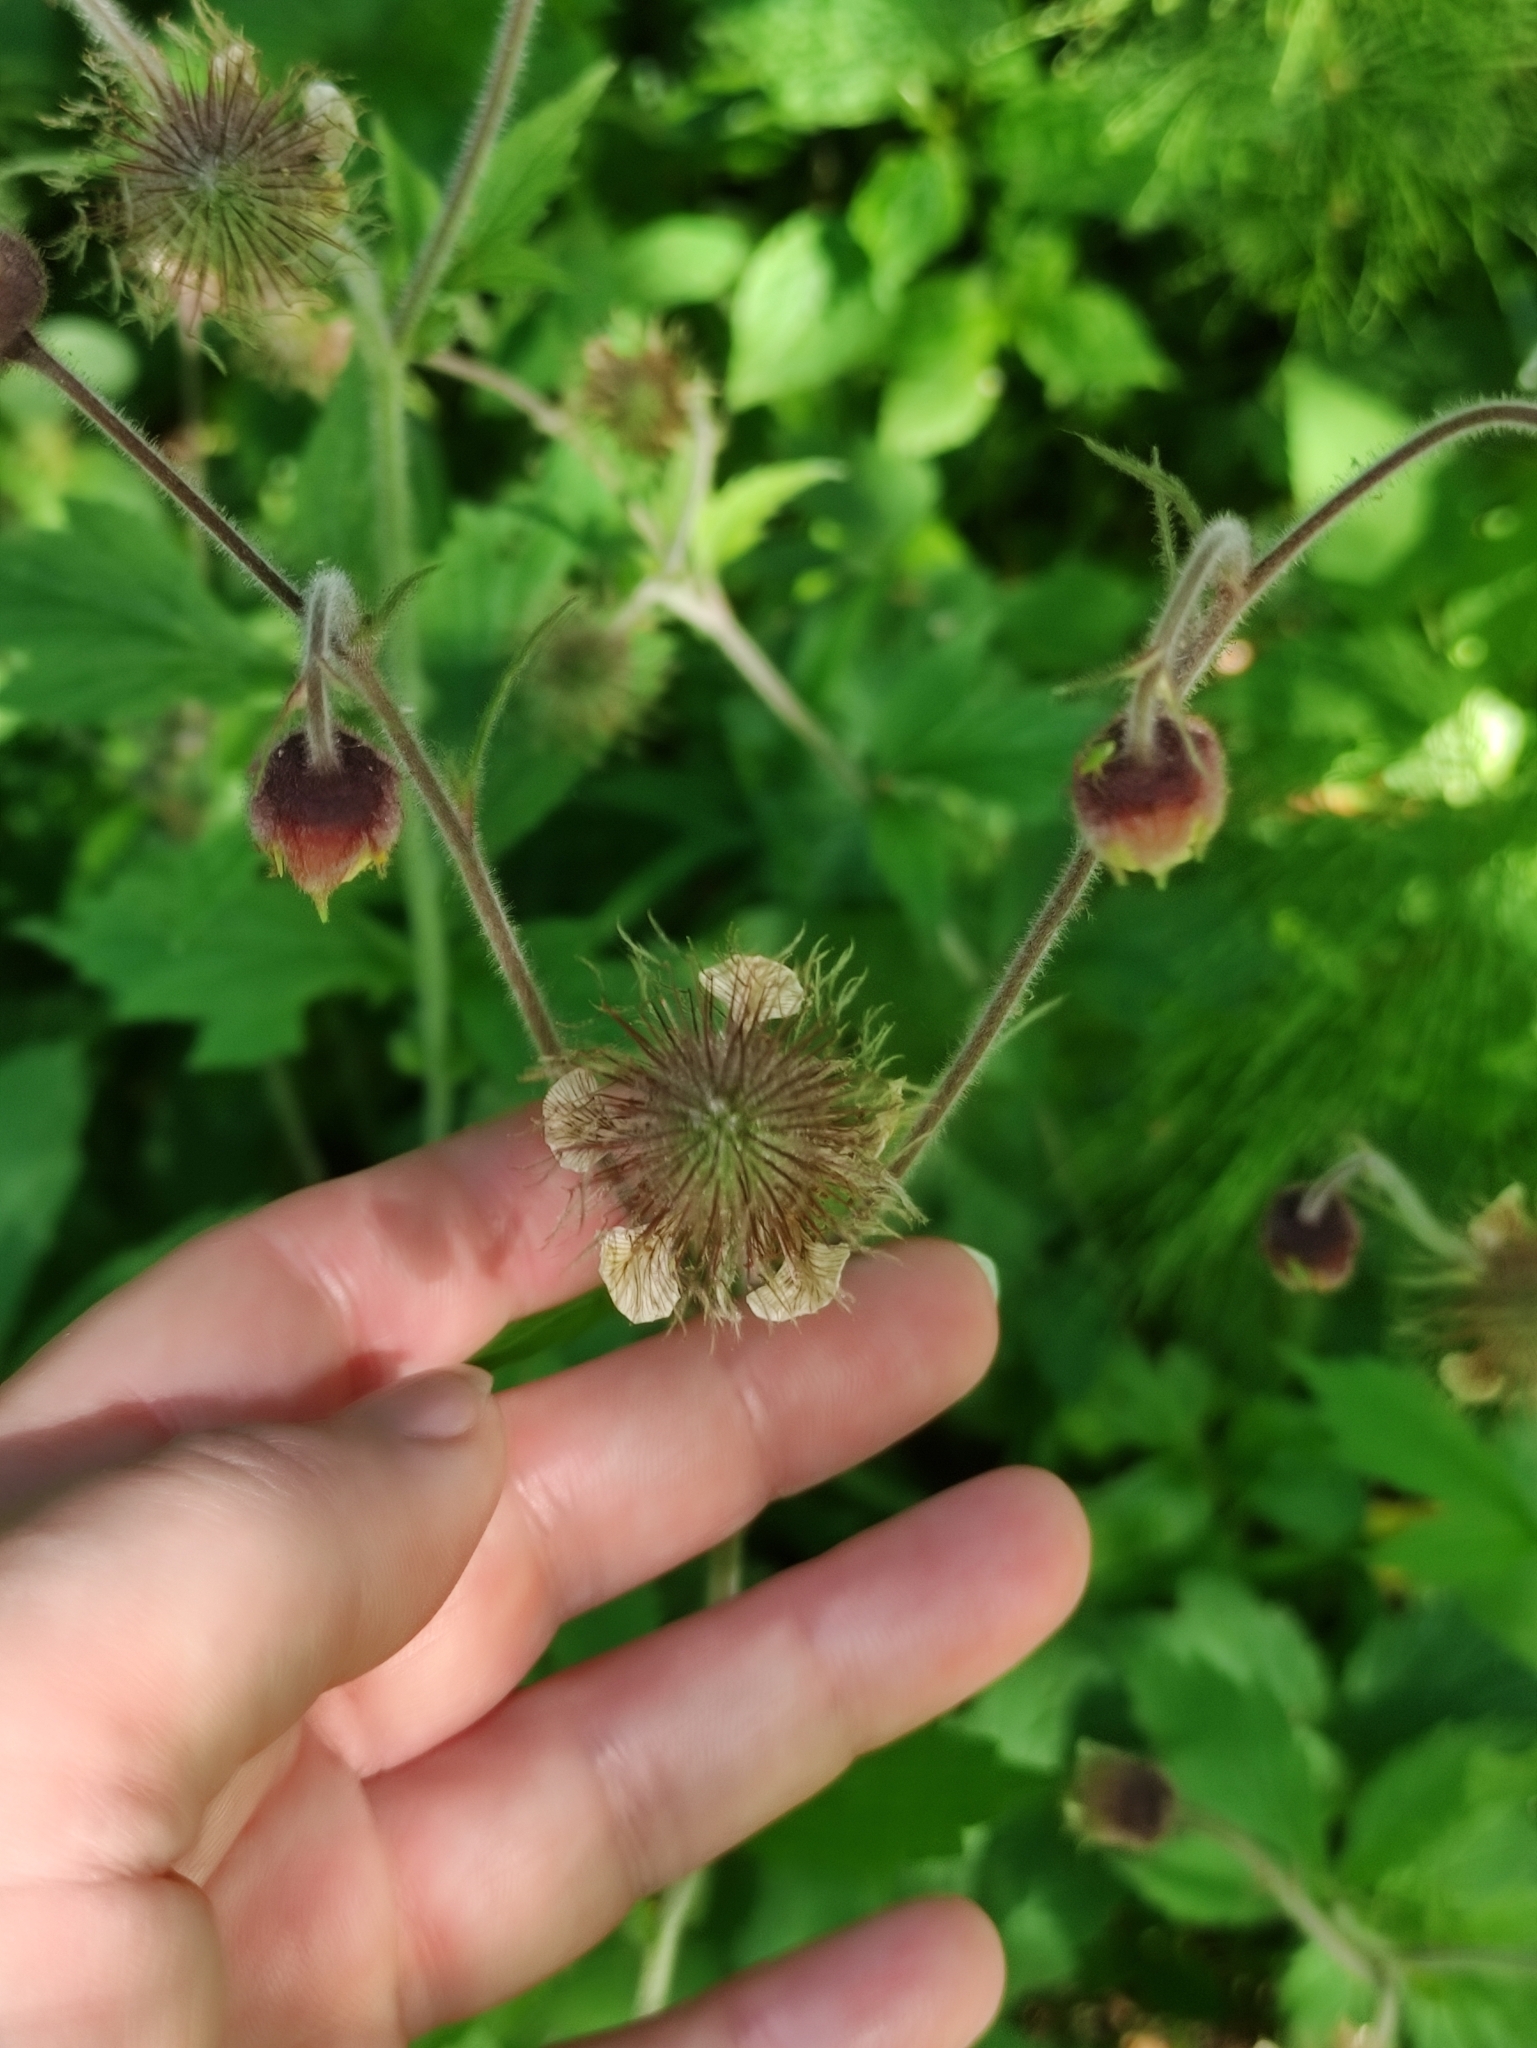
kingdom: Plantae
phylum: Tracheophyta
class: Magnoliopsida
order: Rosales
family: Rosaceae
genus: Geum
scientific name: Geum rivale
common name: Water avens
